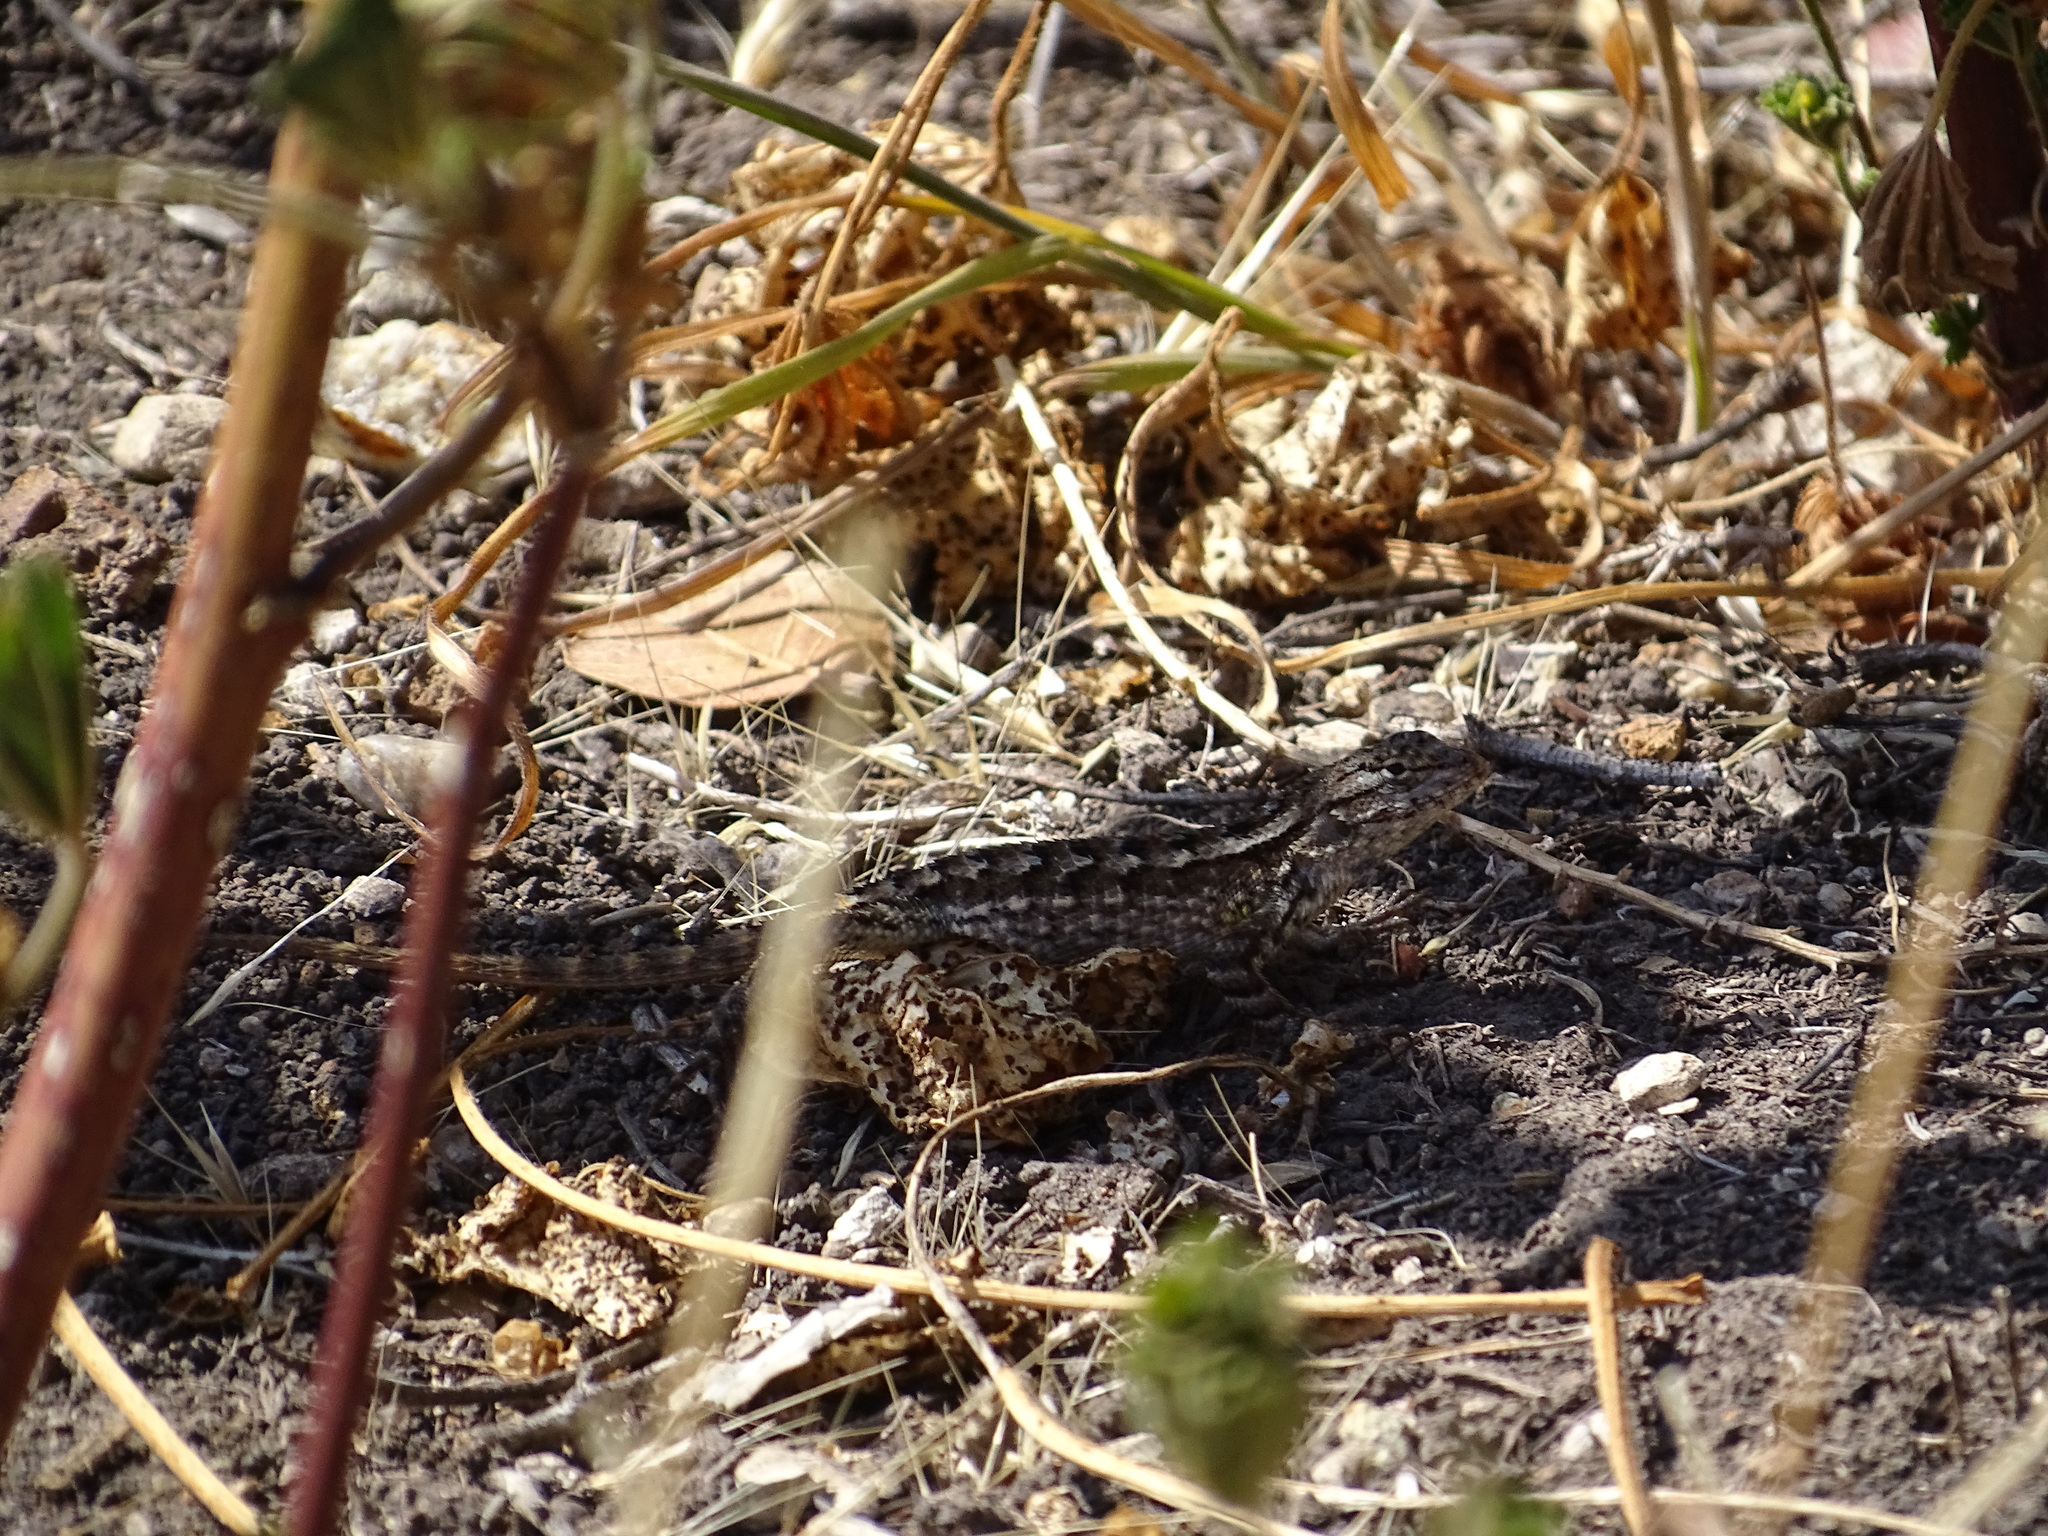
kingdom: Animalia
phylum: Chordata
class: Squamata
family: Phrynosomatidae
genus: Sceloporus
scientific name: Sceloporus occidentalis
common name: Western fence lizard
